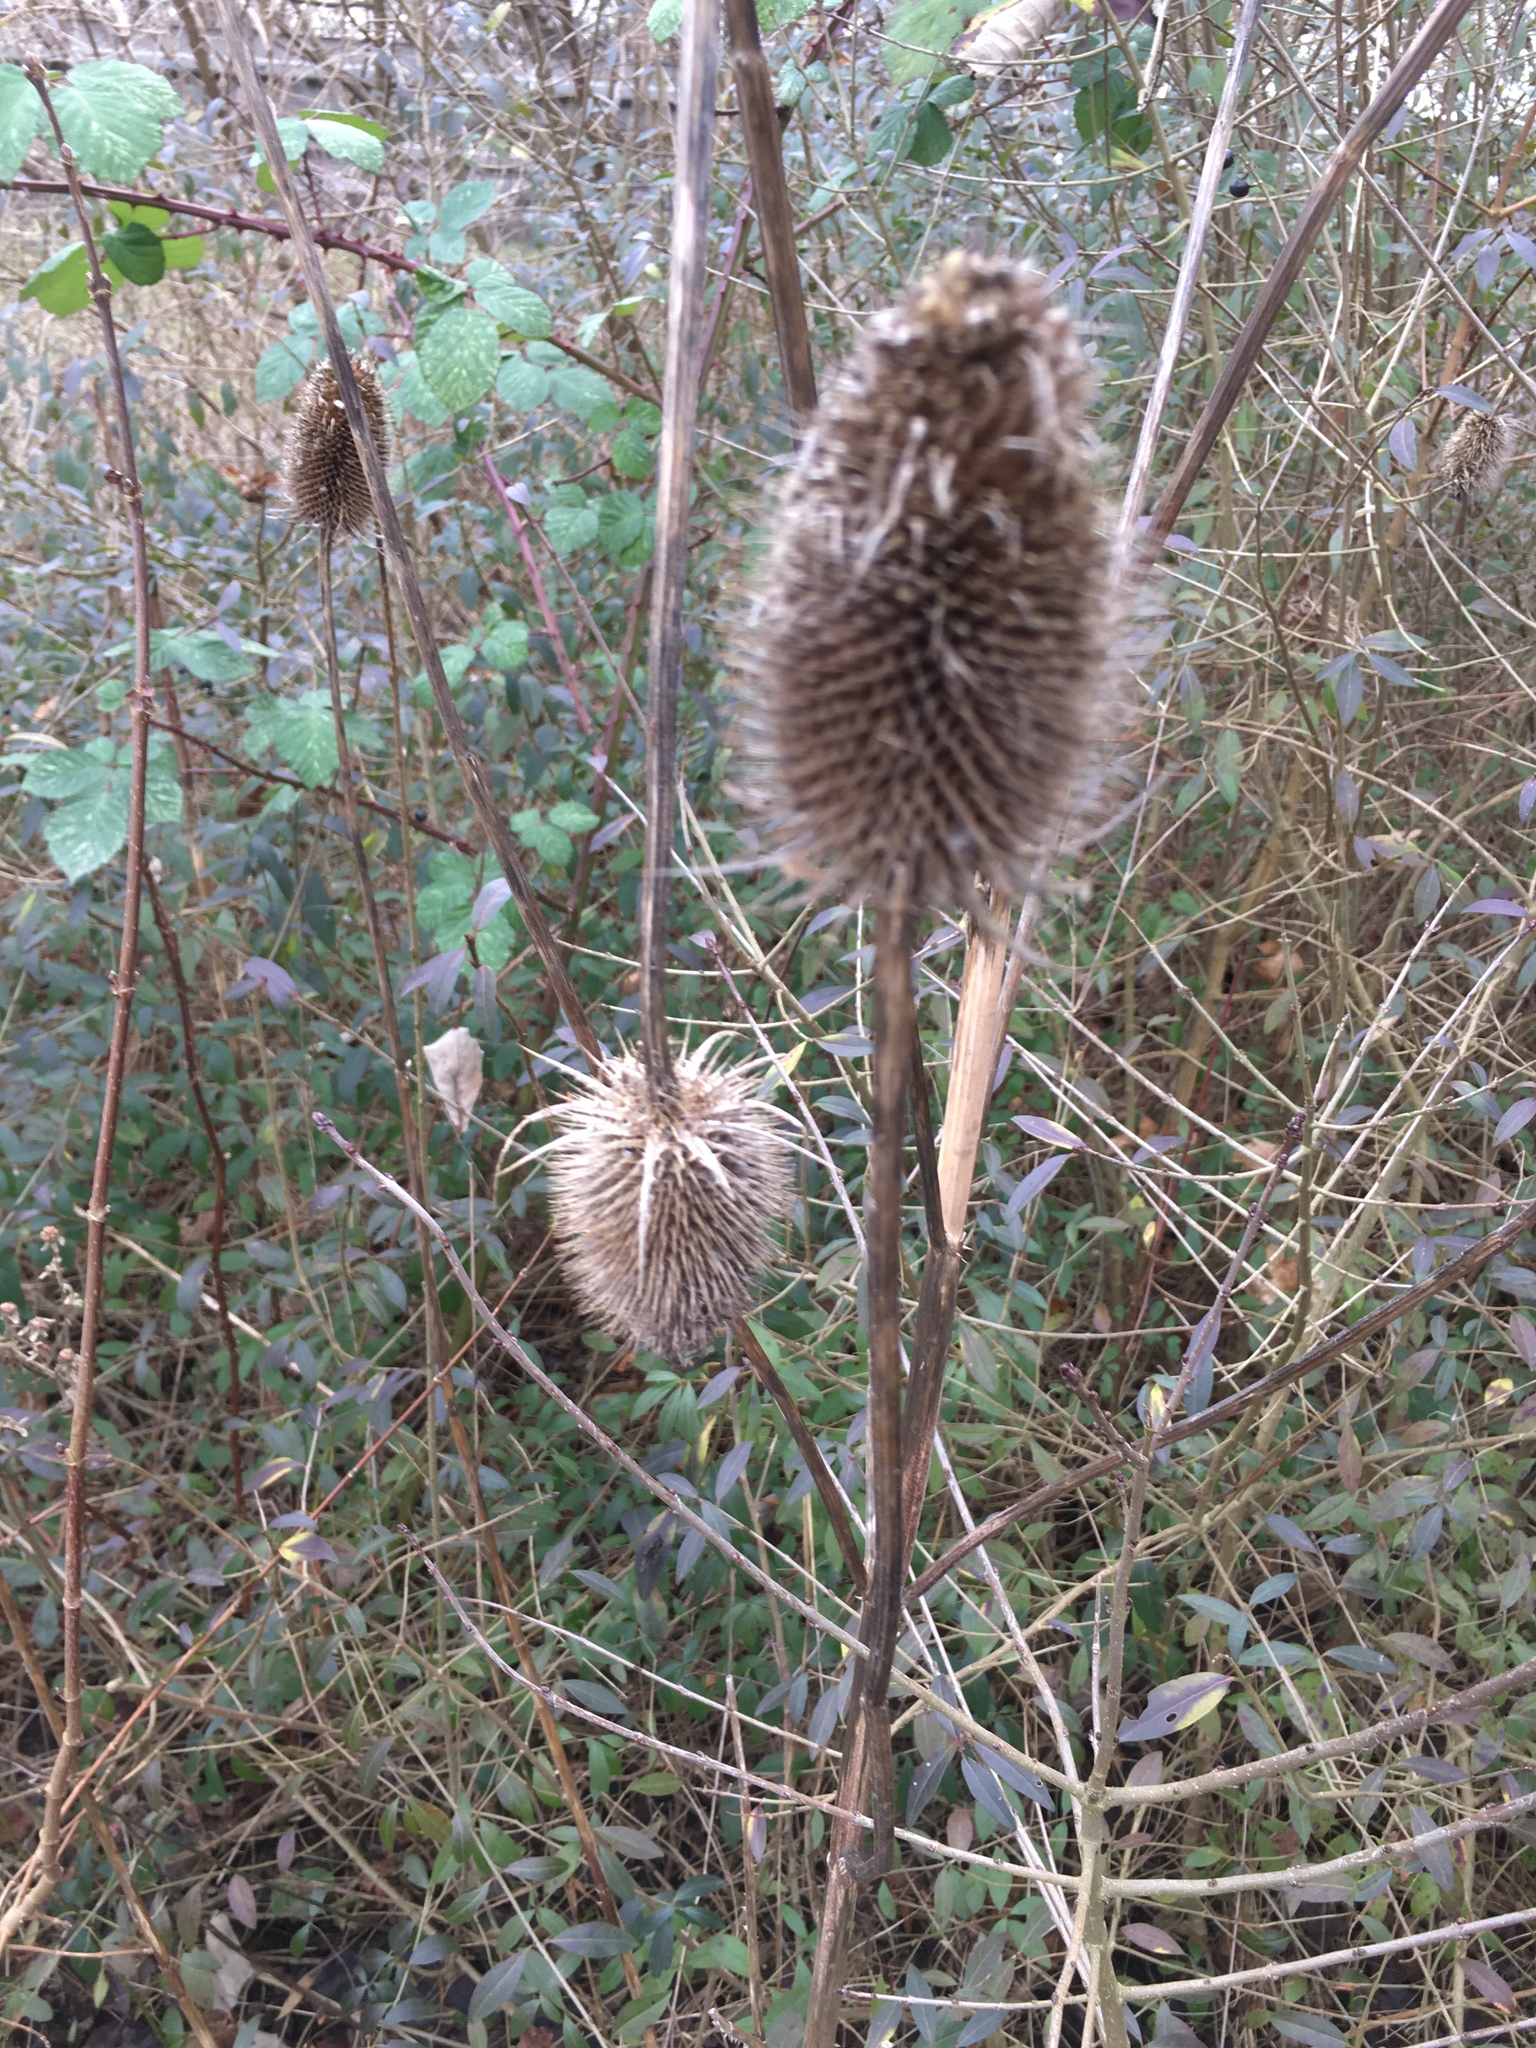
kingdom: Plantae
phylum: Tracheophyta
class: Magnoliopsida
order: Dipsacales
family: Caprifoliaceae
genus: Dipsacus
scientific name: Dipsacus fullonum
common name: Teasel
